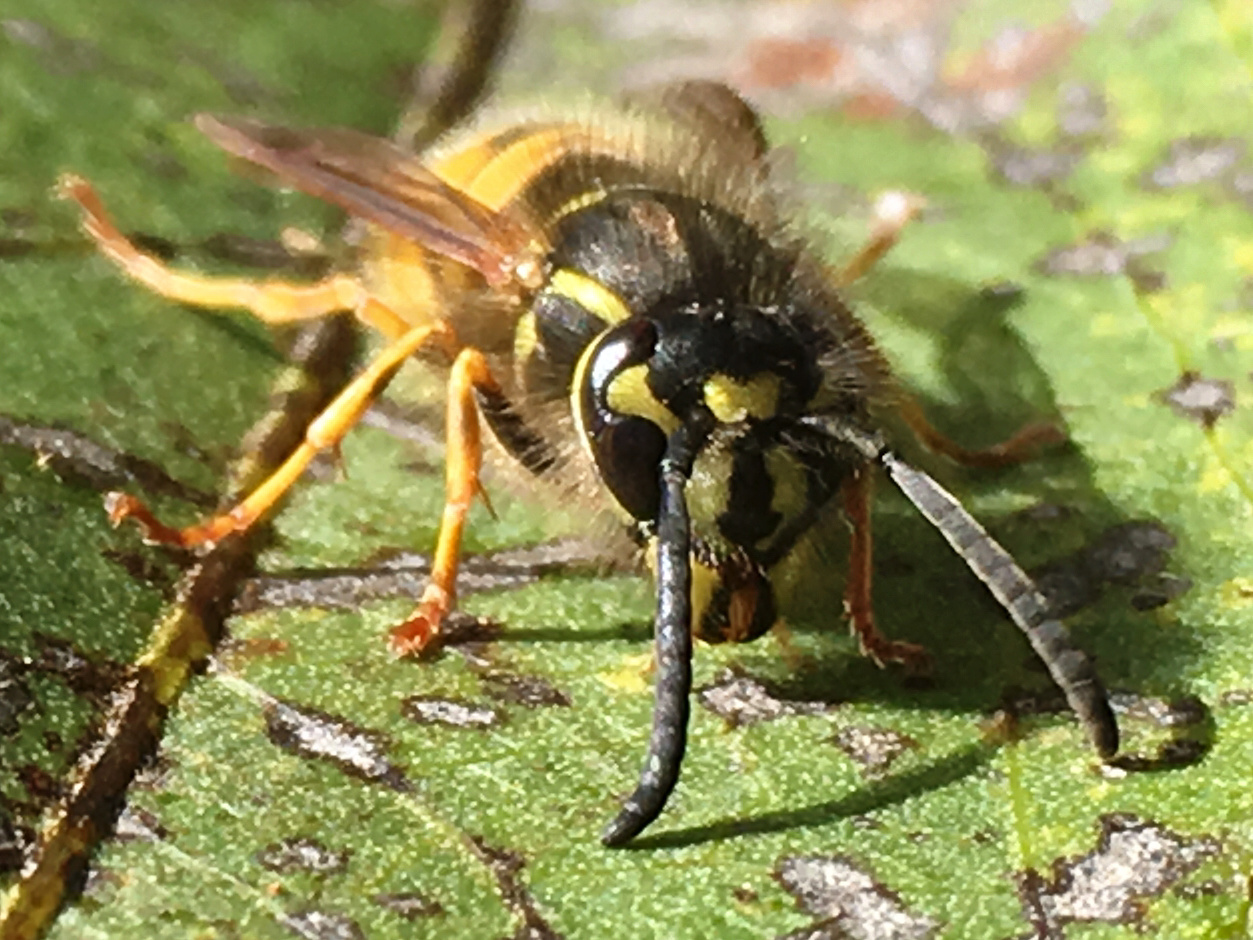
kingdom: Animalia
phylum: Arthropoda
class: Insecta
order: Hymenoptera
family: Vespidae
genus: Vespula
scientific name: Vespula vulgaris
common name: Common wasp
